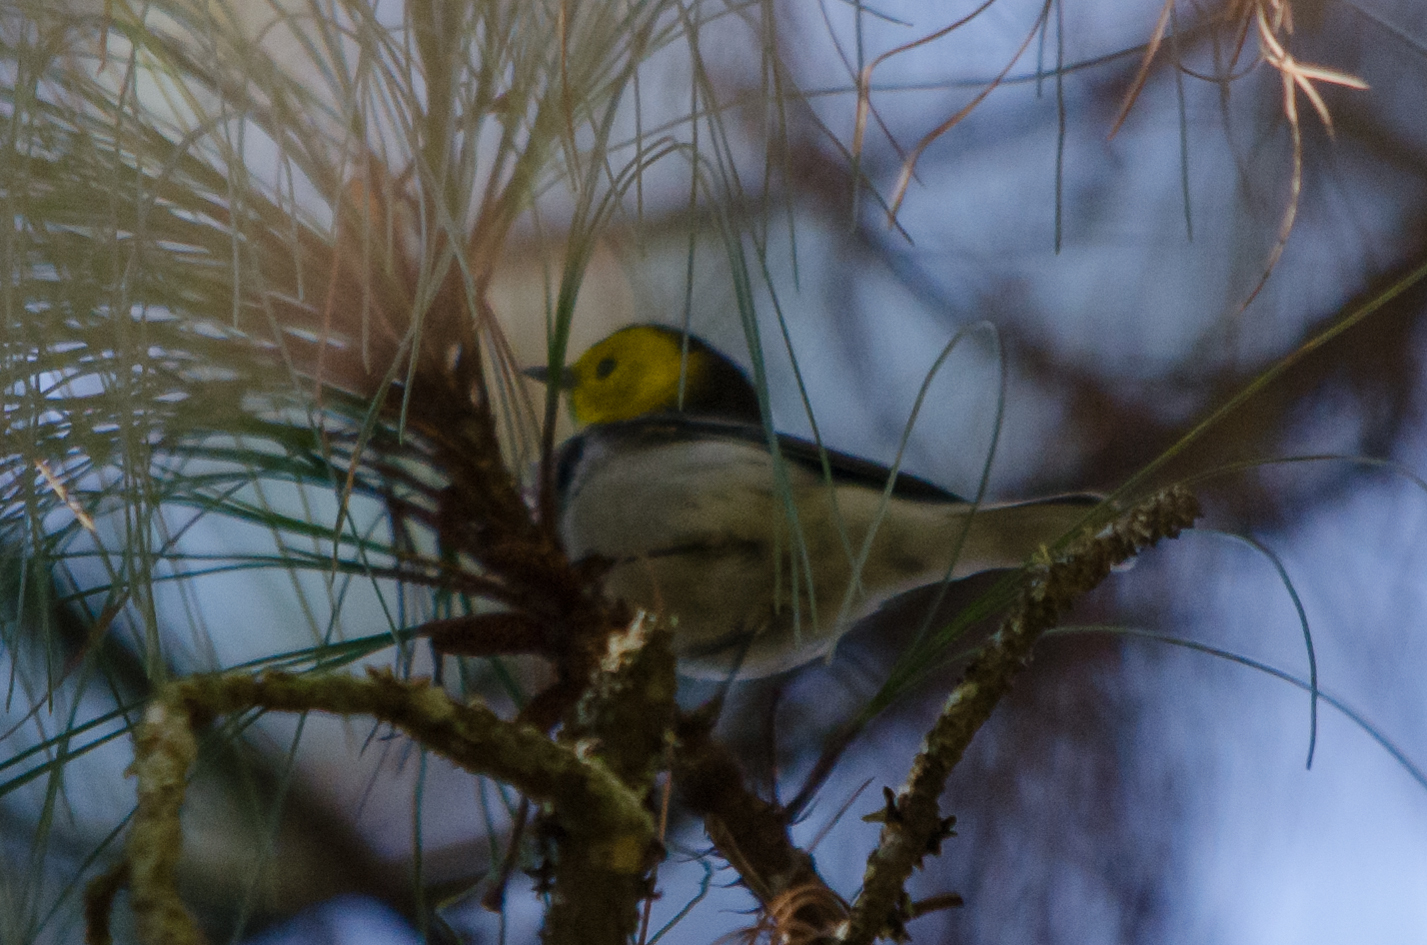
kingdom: Animalia
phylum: Chordata
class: Aves
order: Passeriformes
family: Parulidae
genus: Setophaga
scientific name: Setophaga occidentalis
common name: Hermit warbler
